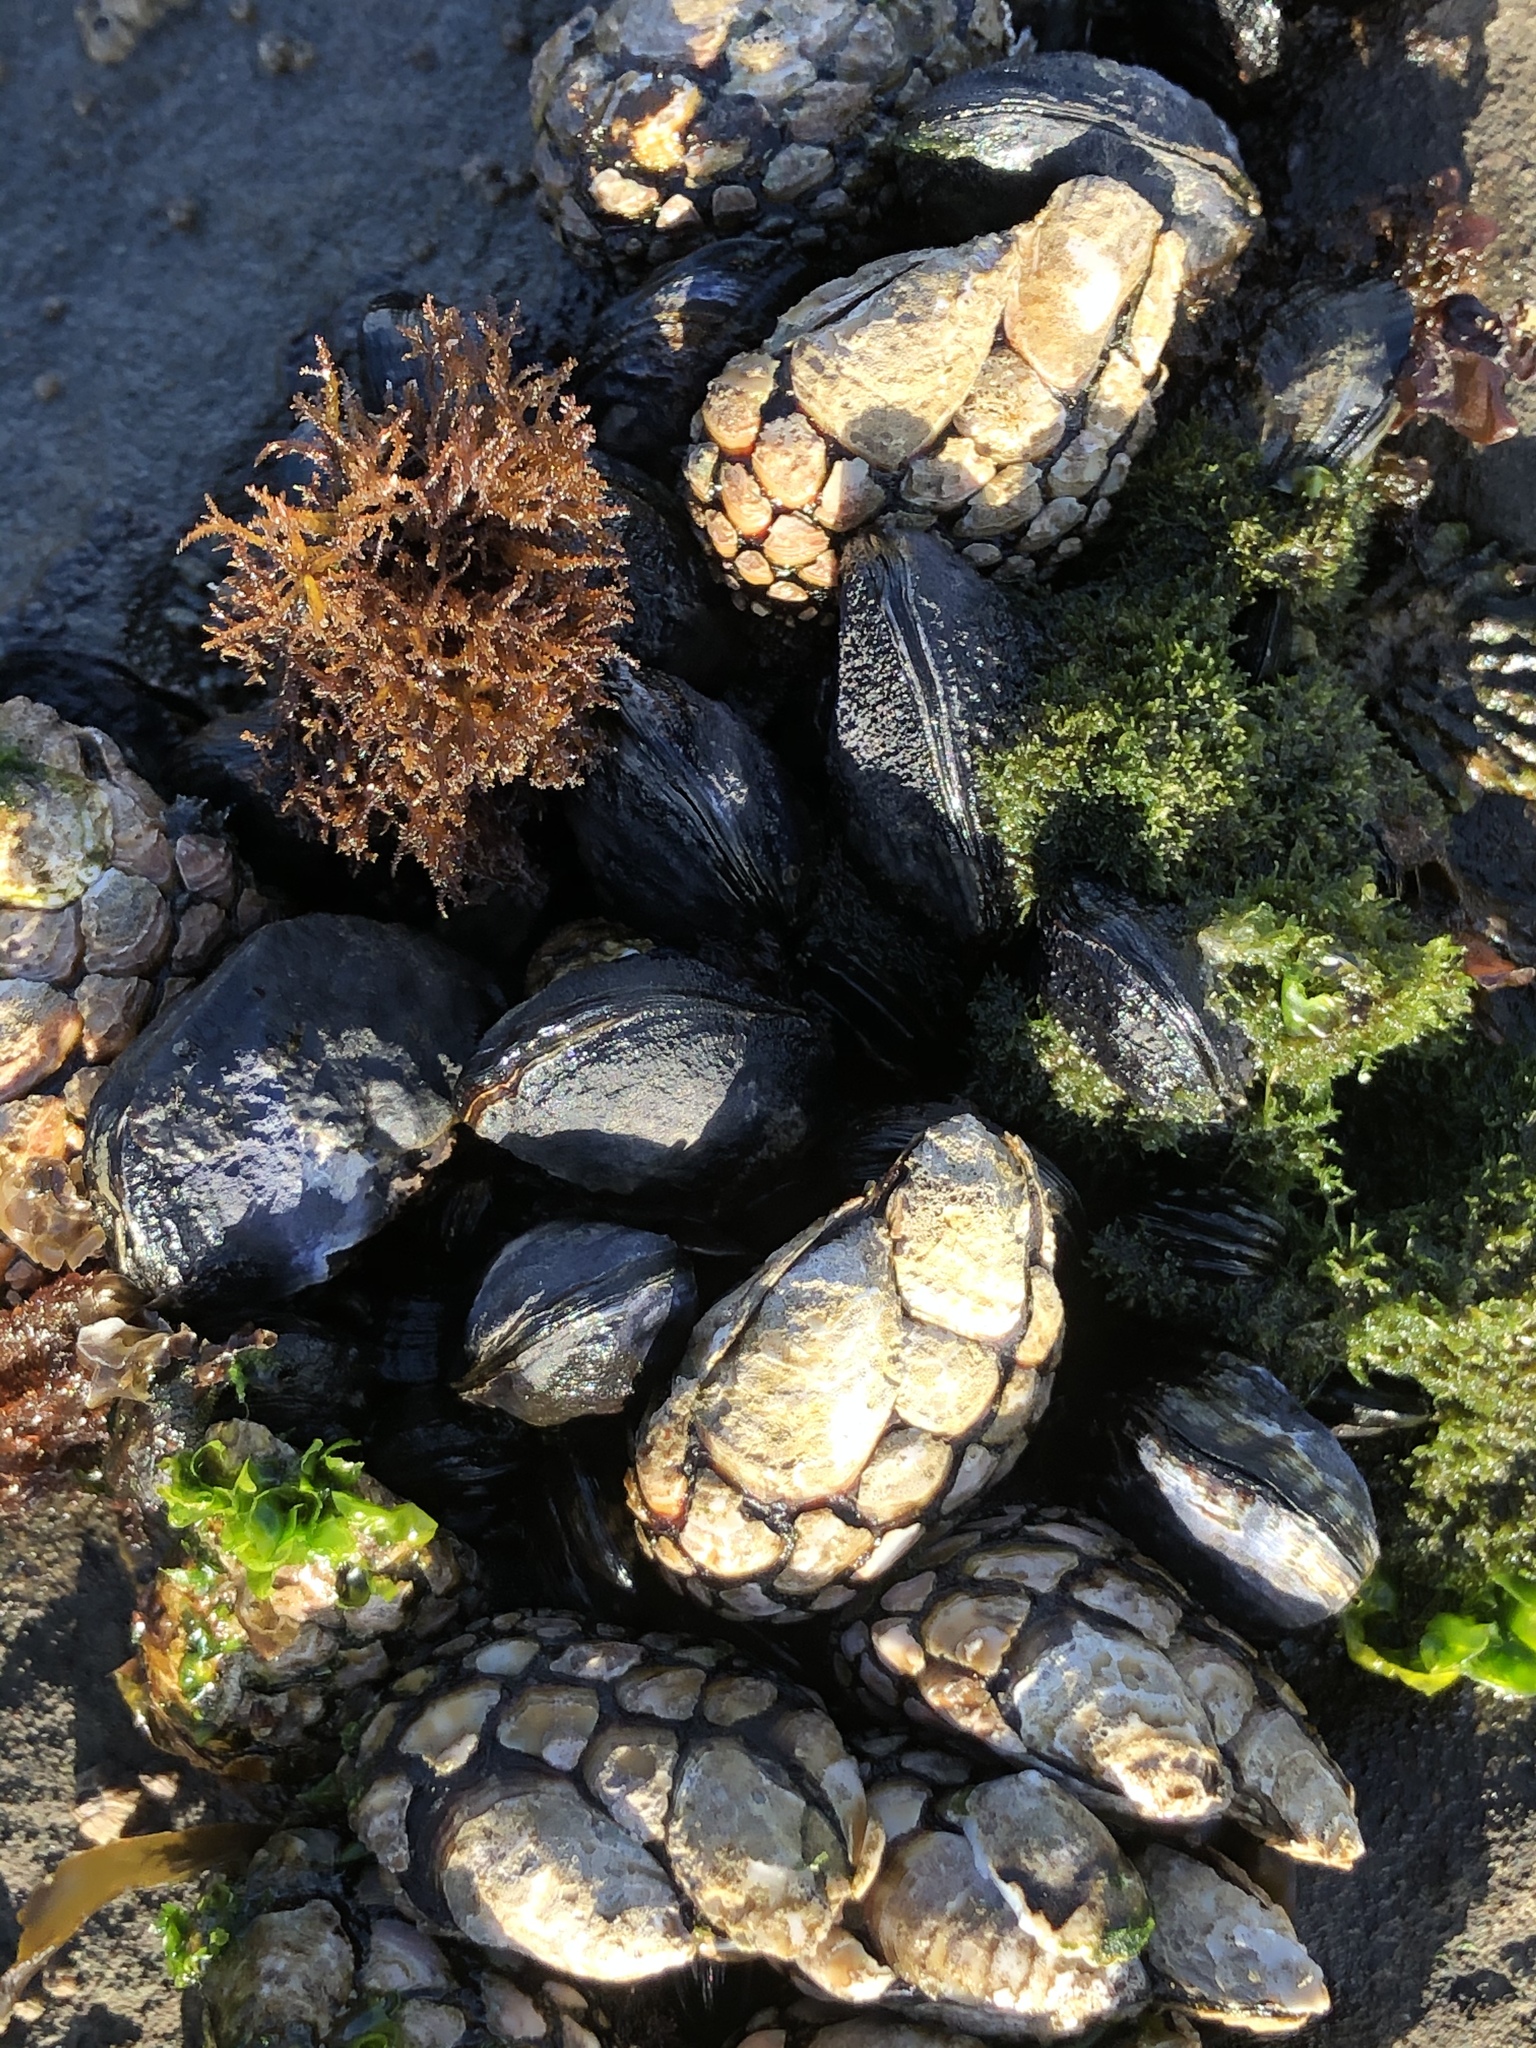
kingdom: Animalia
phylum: Arthropoda
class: Maxillopoda
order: Pedunculata
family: Pollicipedidae
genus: Pollicipes
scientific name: Pollicipes polymerus
